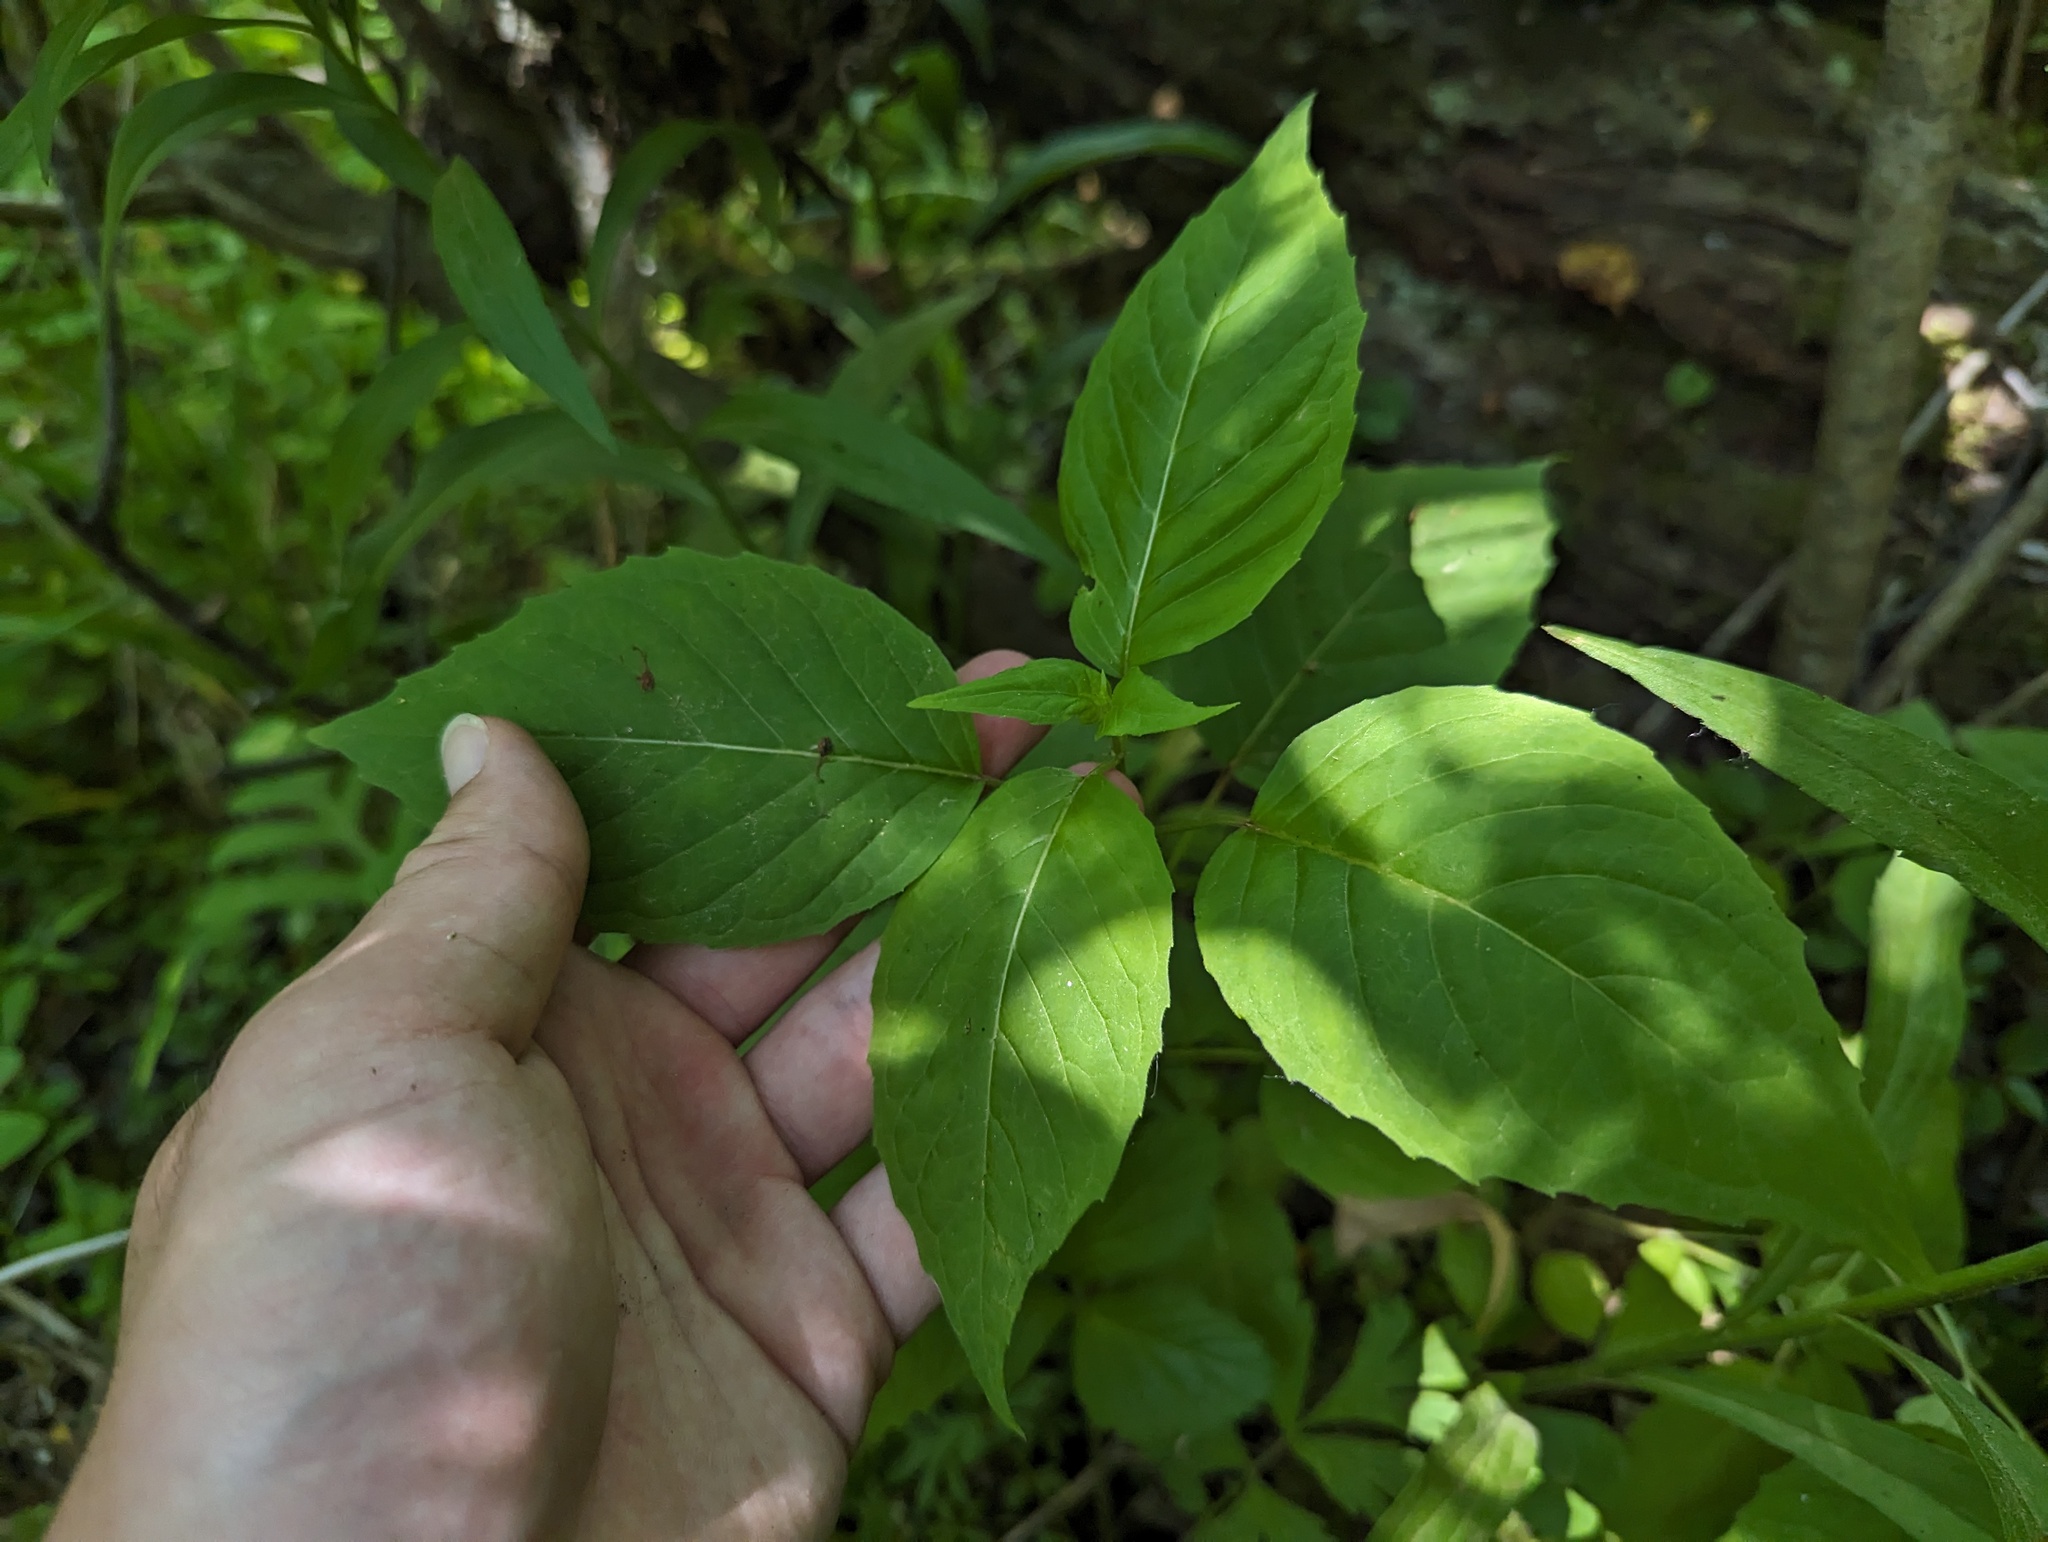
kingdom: Plantae
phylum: Tracheophyta
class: Magnoliopsida
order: Myrtales
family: Onagraceae
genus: Circaea
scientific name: Circaea canadensis
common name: Broad-leaved enchanter's nightshade
